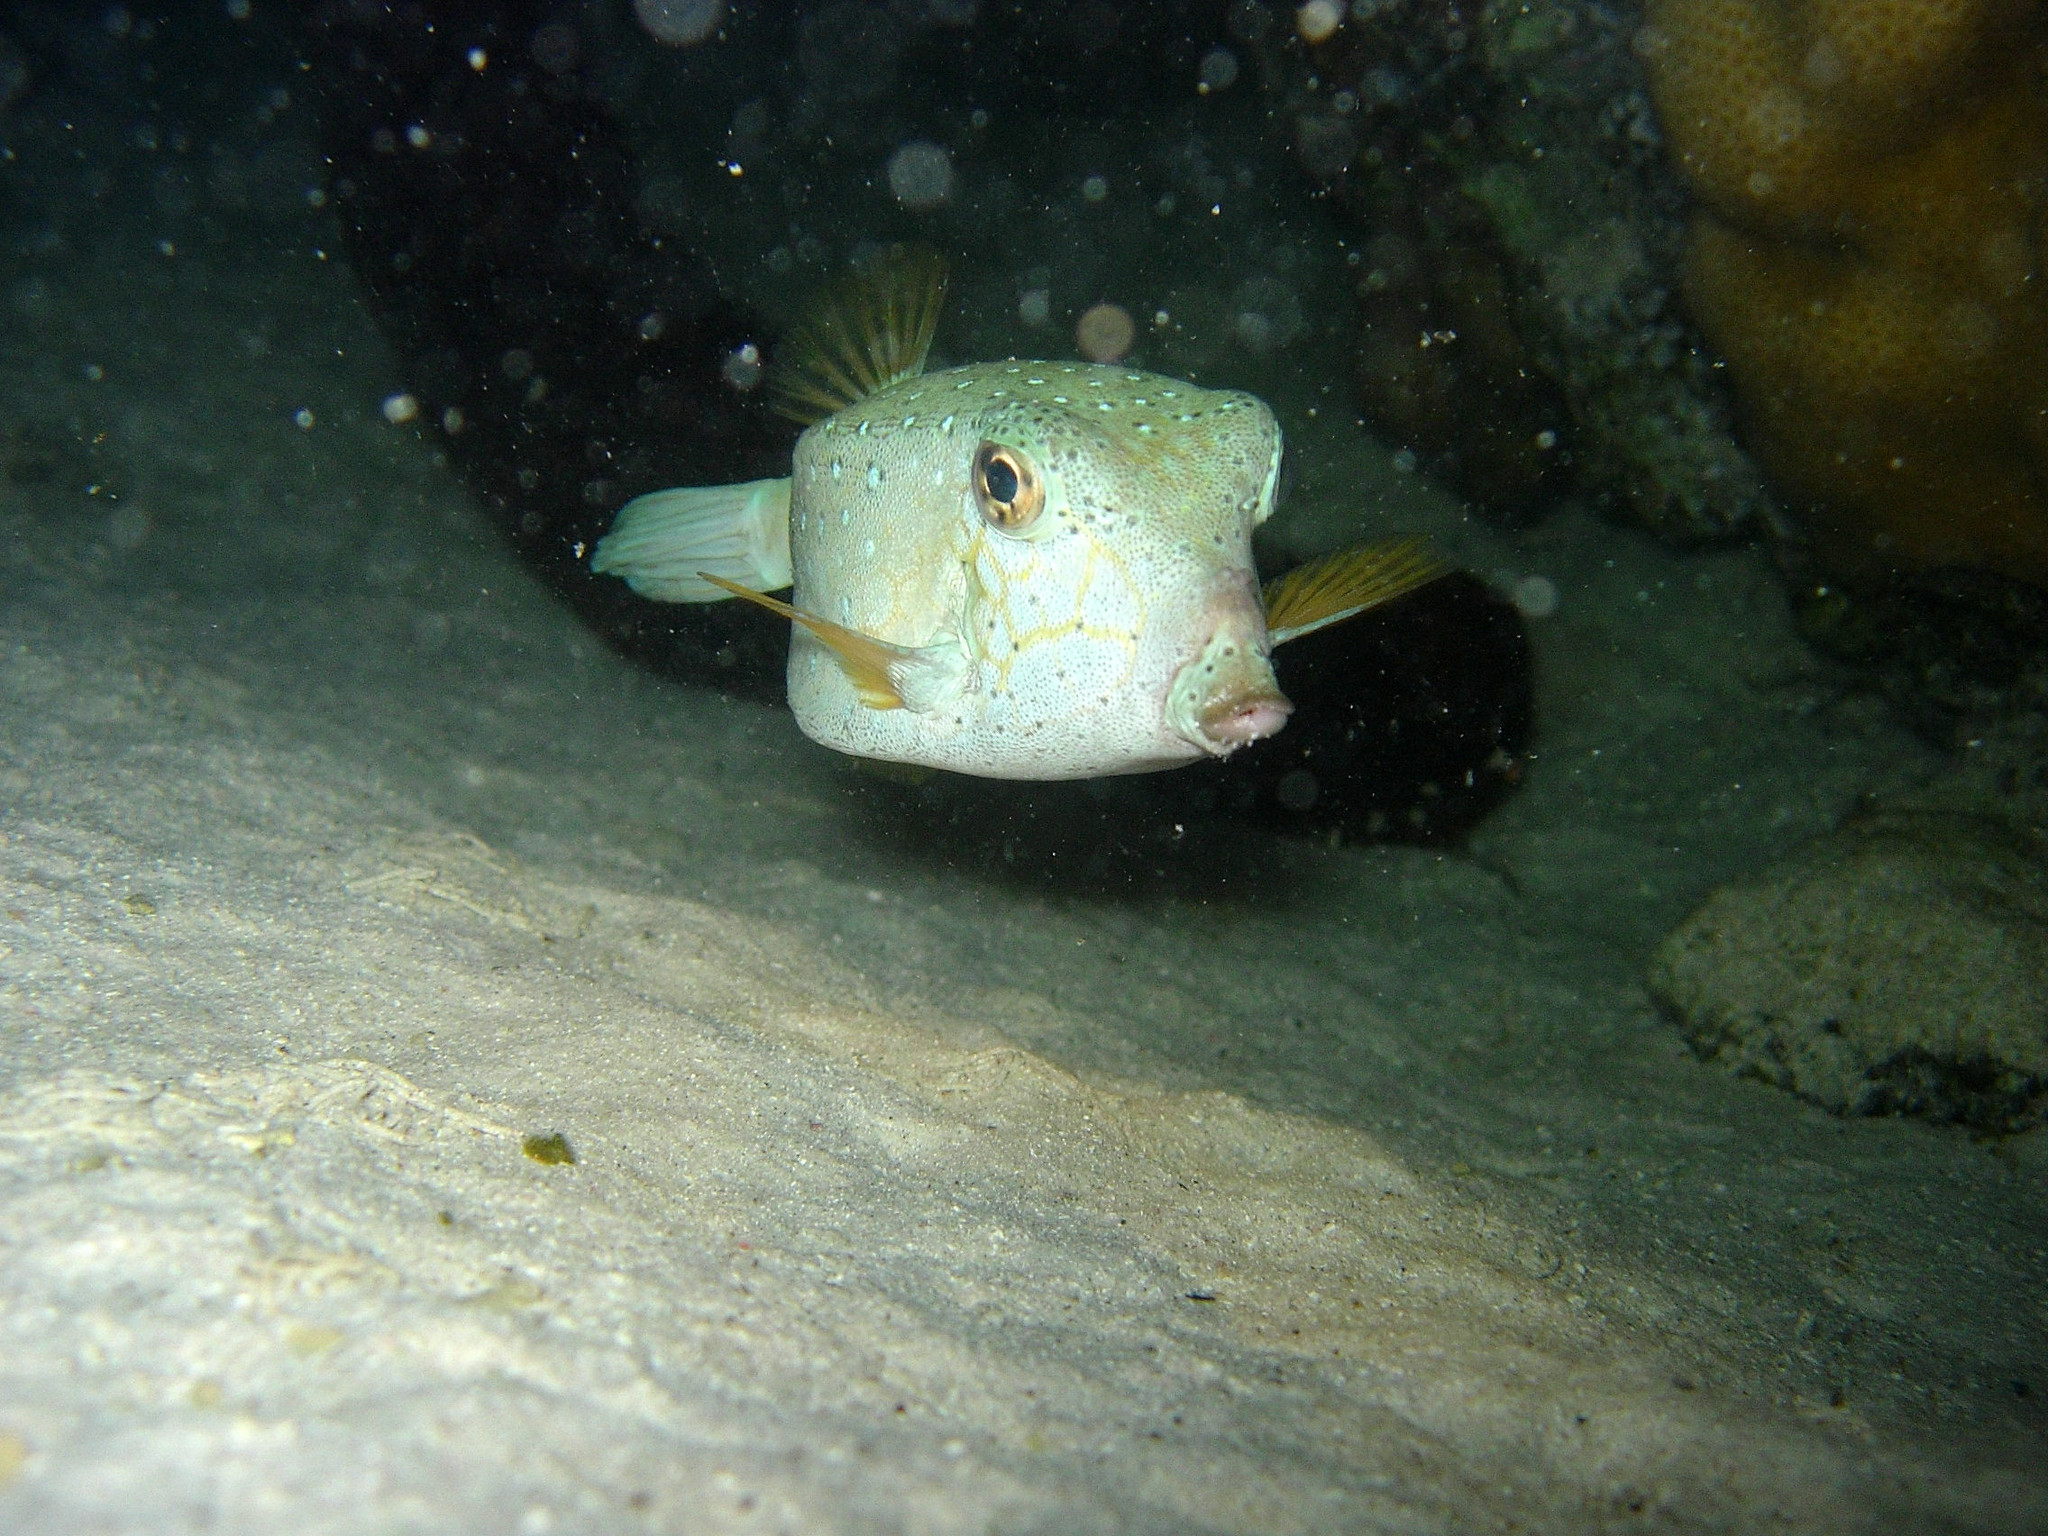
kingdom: Animalia
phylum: Chordata
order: Tetraodontiformes
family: Ostraciidae
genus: Ostracion
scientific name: Ostracion cubicus
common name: Cube trunkfish
